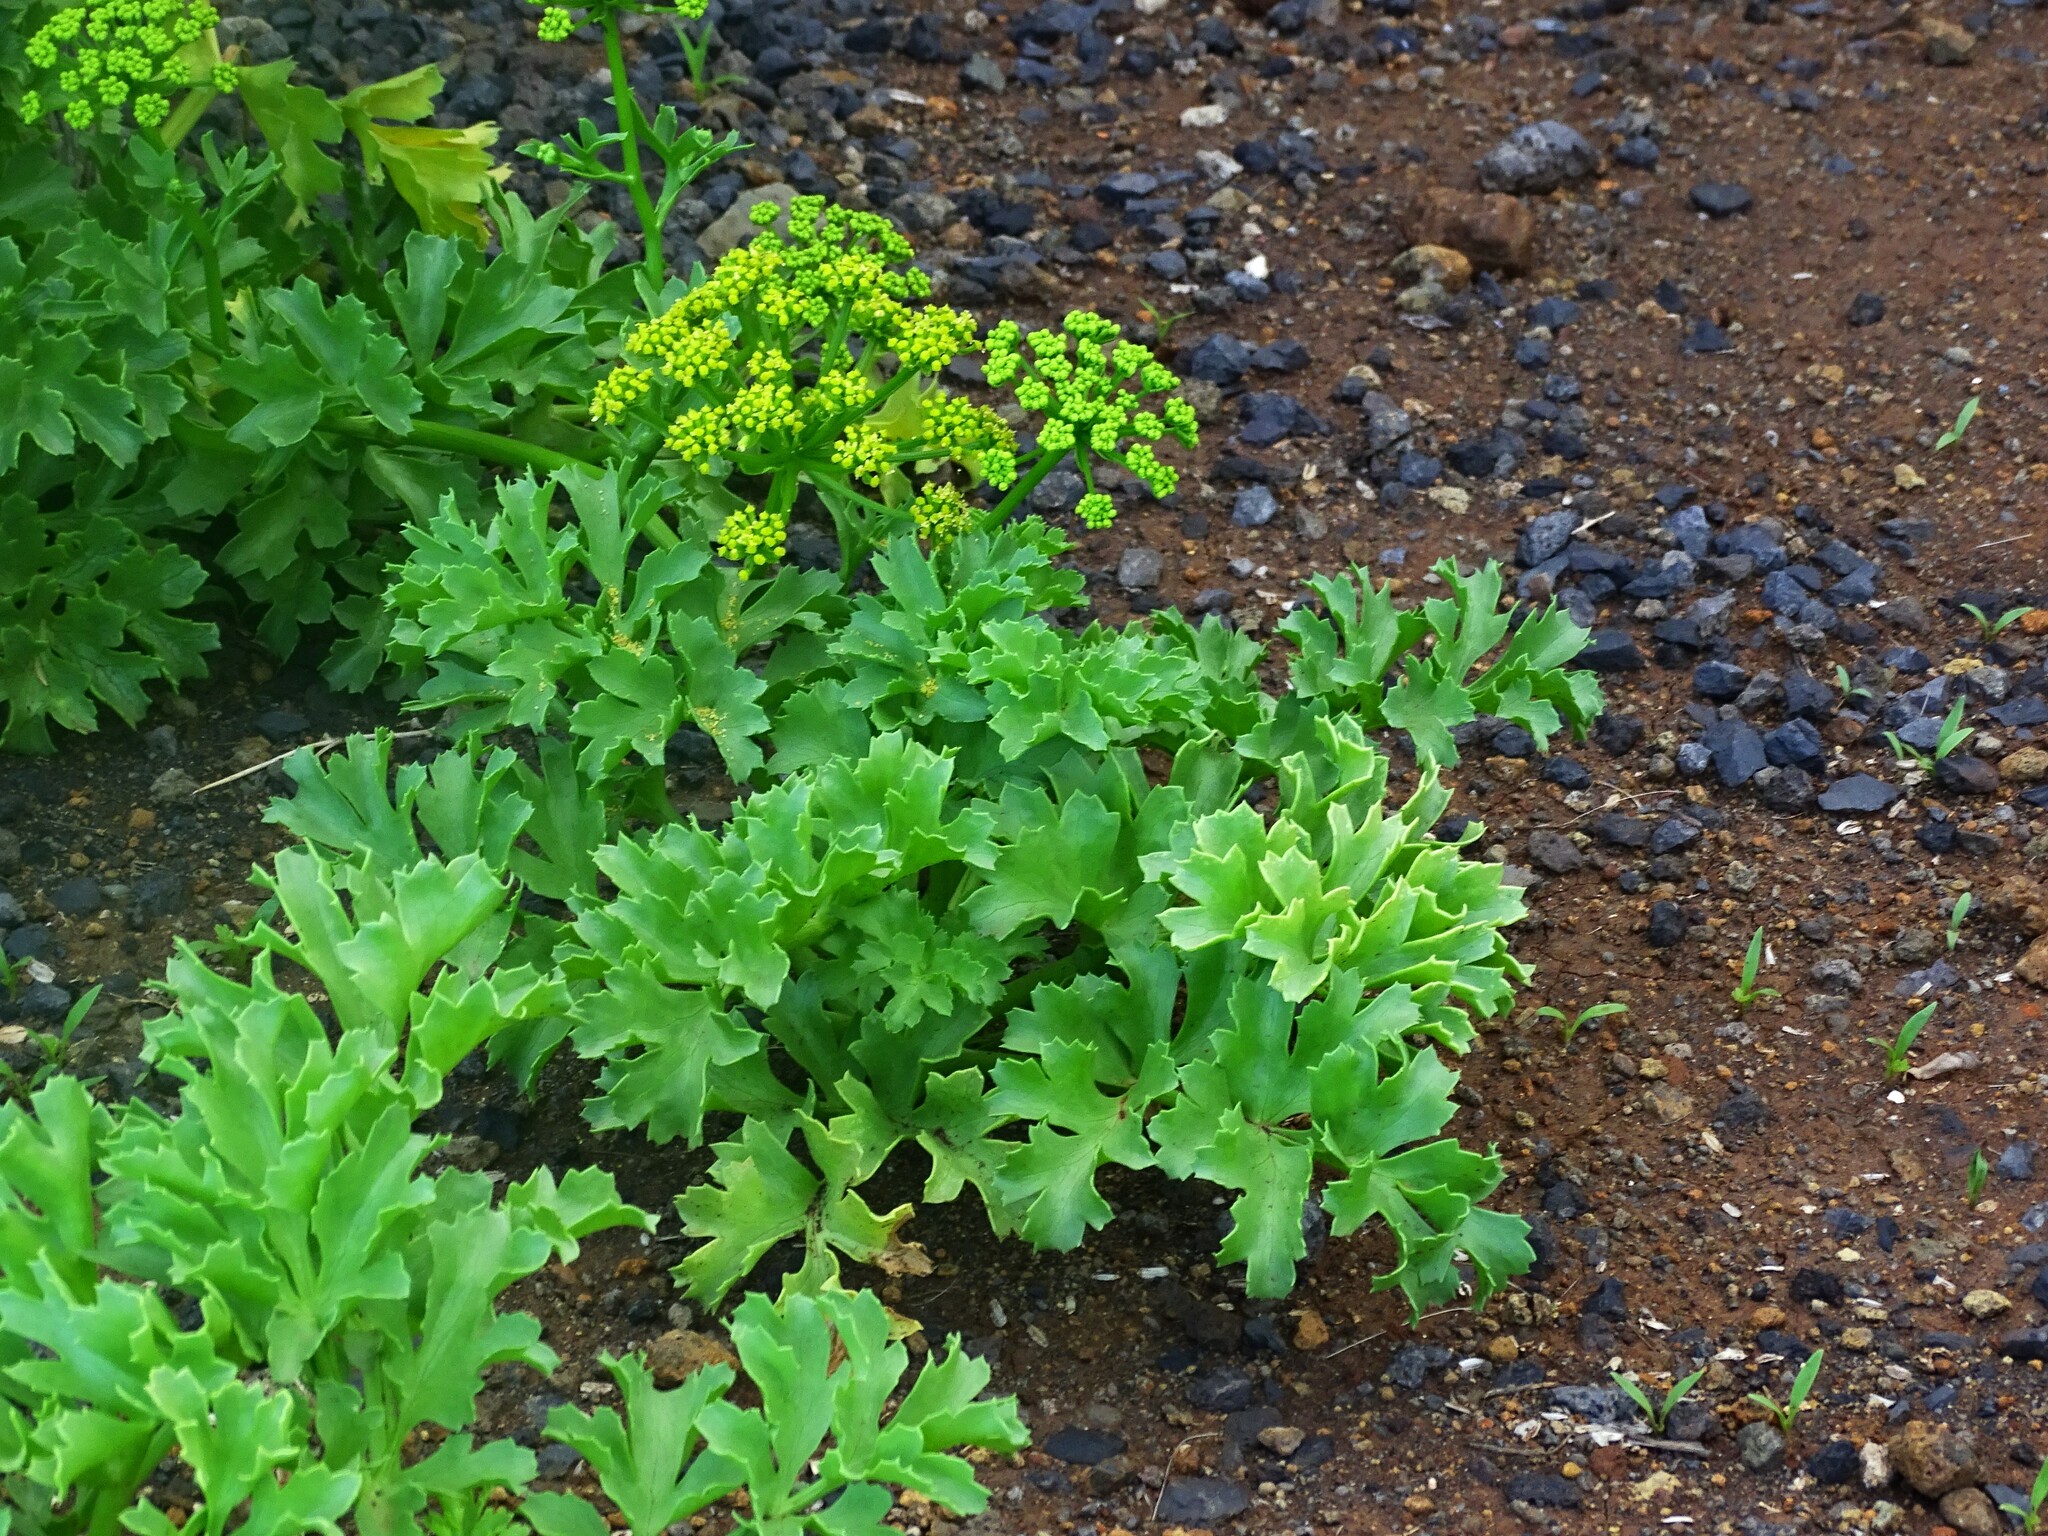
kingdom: Plantae
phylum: Tracheophyta
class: Magnoliopsida
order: Apiales
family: Apiaceae
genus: Astydamia
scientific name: Astydamia latifolia
